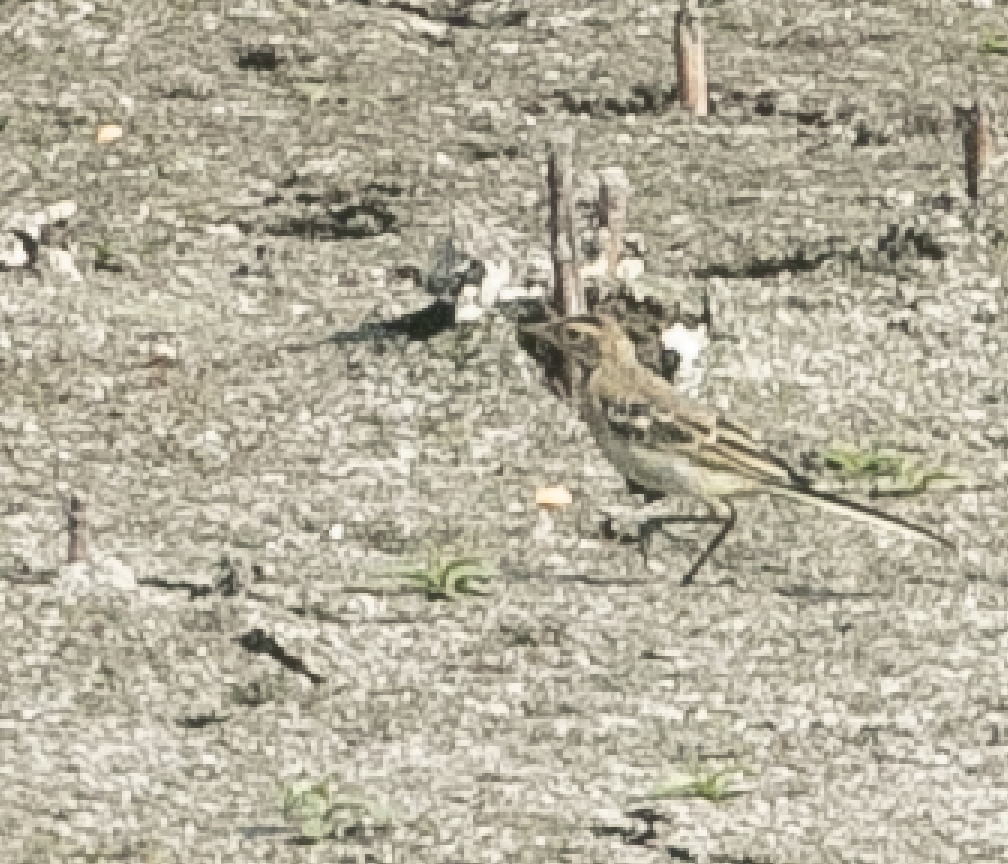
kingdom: Animalia
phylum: Chordata
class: Aves
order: Passeriformes
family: Motacillidae
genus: Motacilla
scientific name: Motacilla flava
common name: Western yellow wagtail
